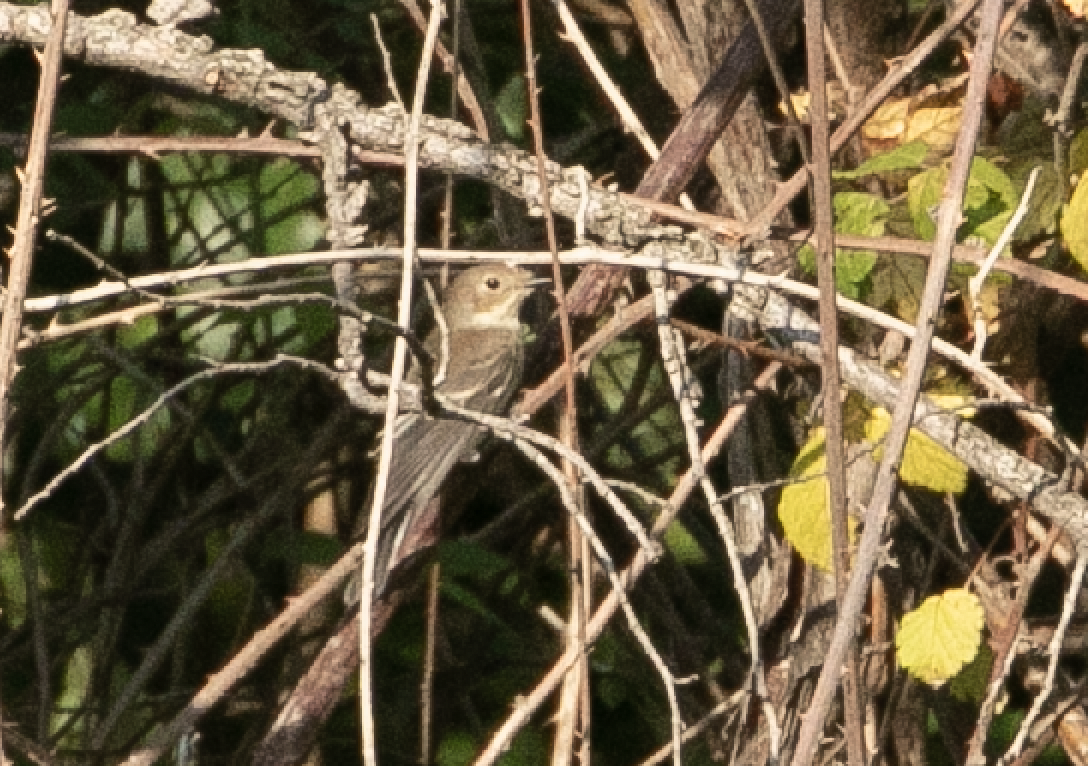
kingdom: Animalia
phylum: Chordata
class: Aves
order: Passeriformes
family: Muscicapidae
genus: Ficedula
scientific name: Ficedula hypoleuca
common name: European pied flycatcher
